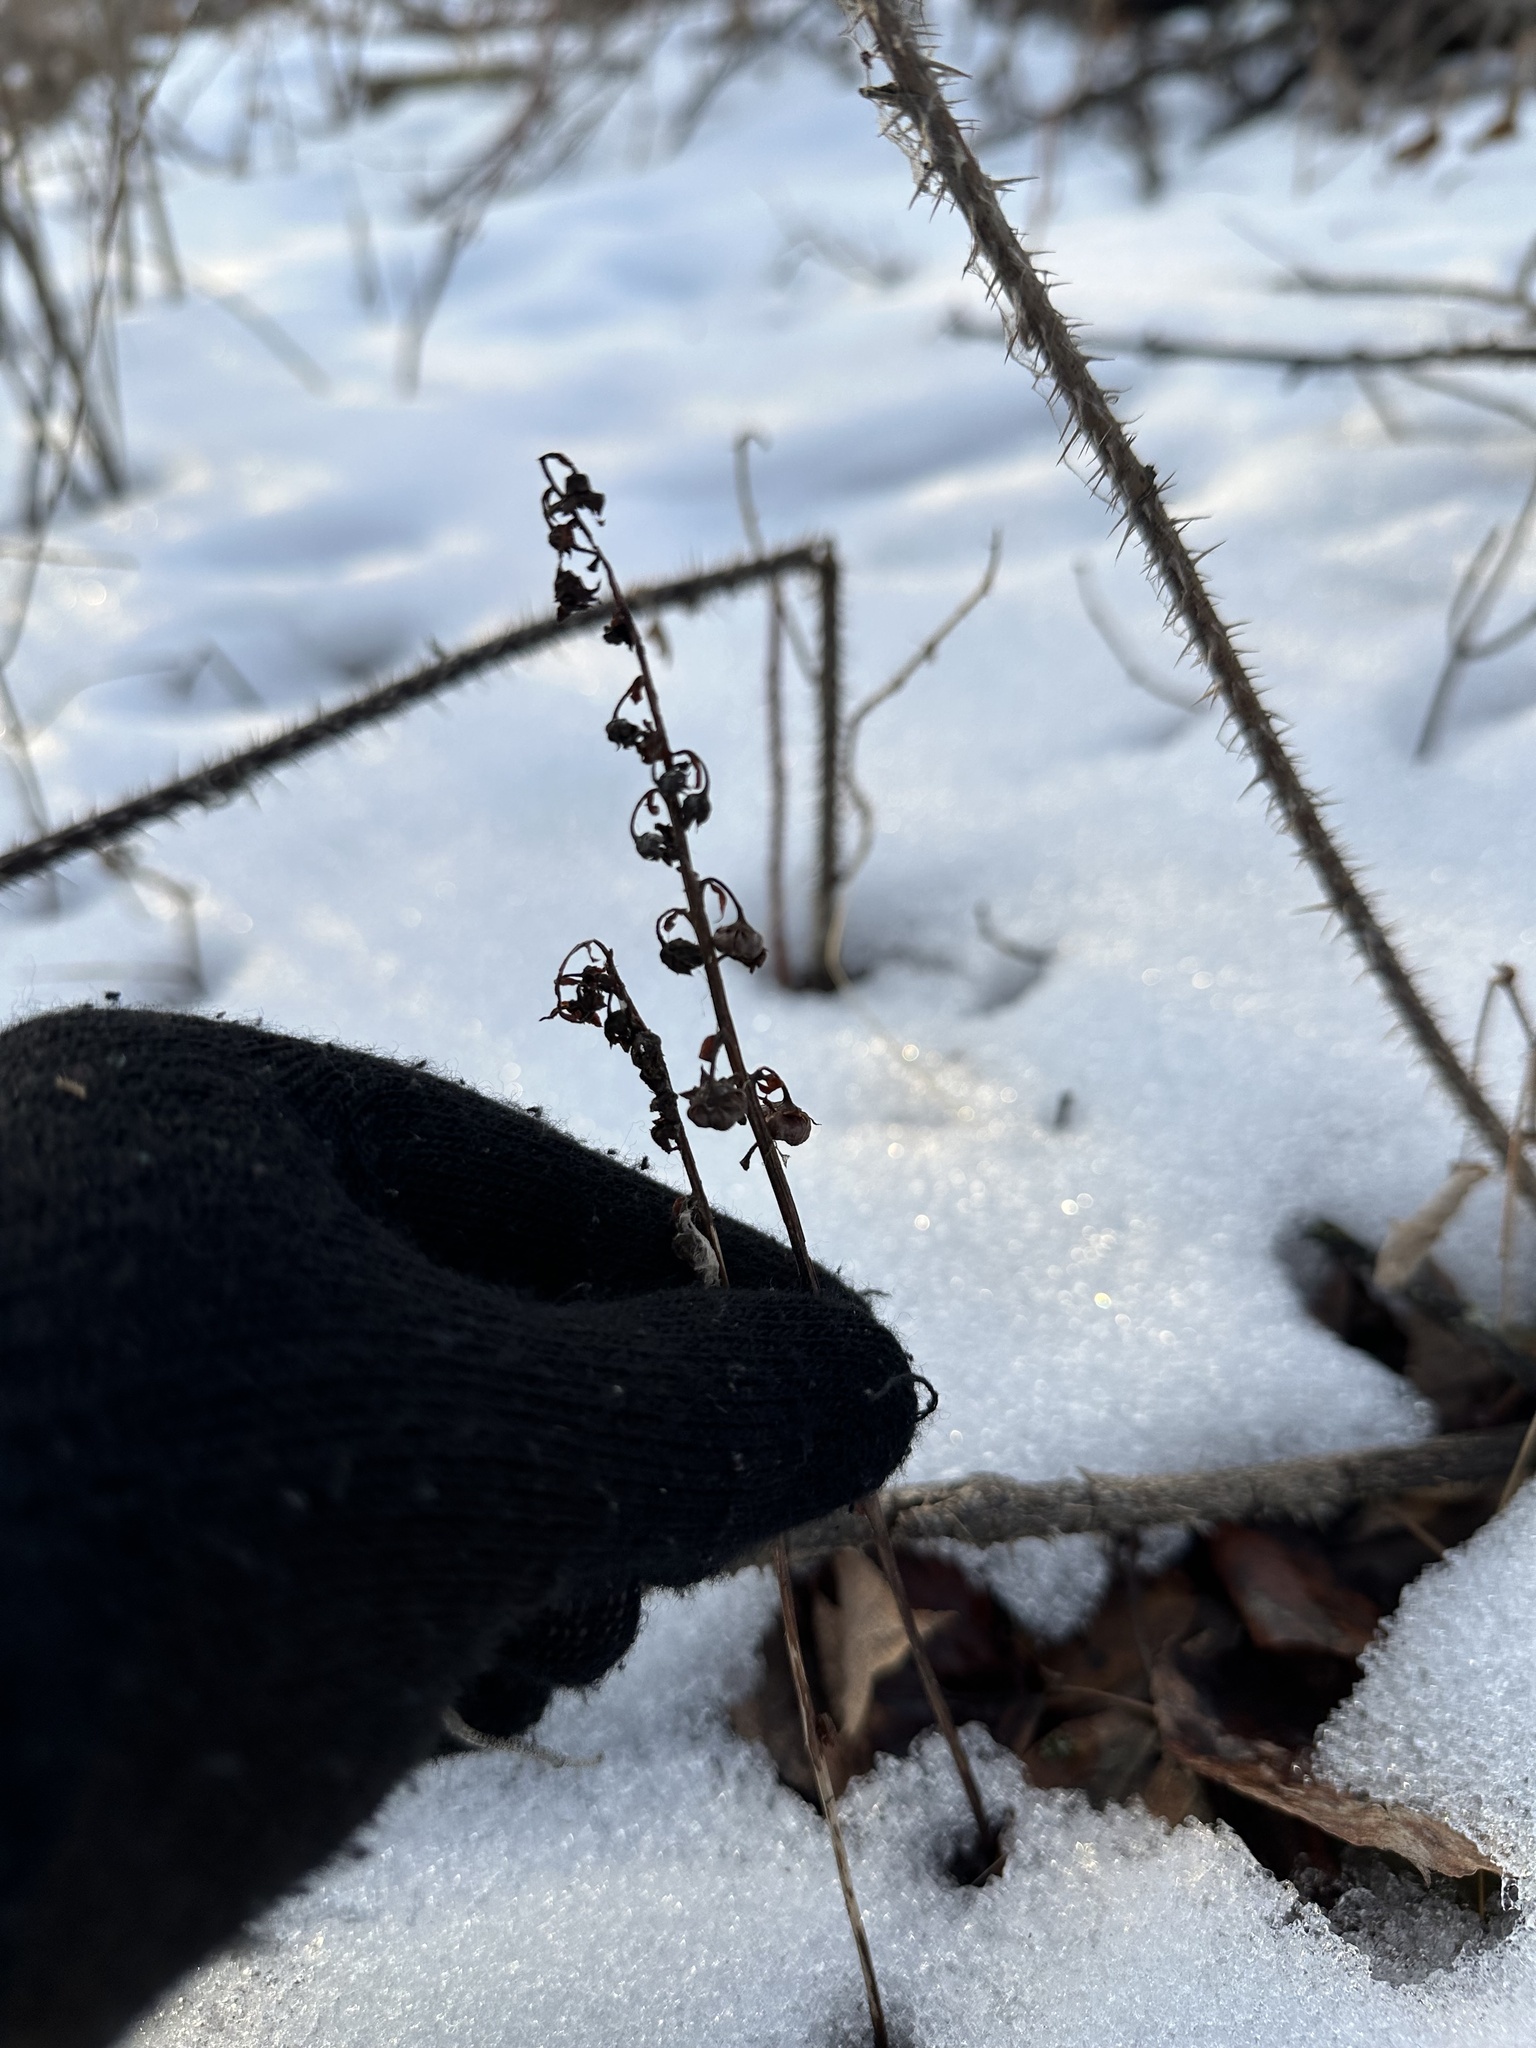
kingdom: Plantae
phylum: Tracheophyta
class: Magnoliopsida
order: Ericales
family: Ericaceae
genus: Pyrola
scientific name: Pyrola asarifolia
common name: Bog wintergreen
